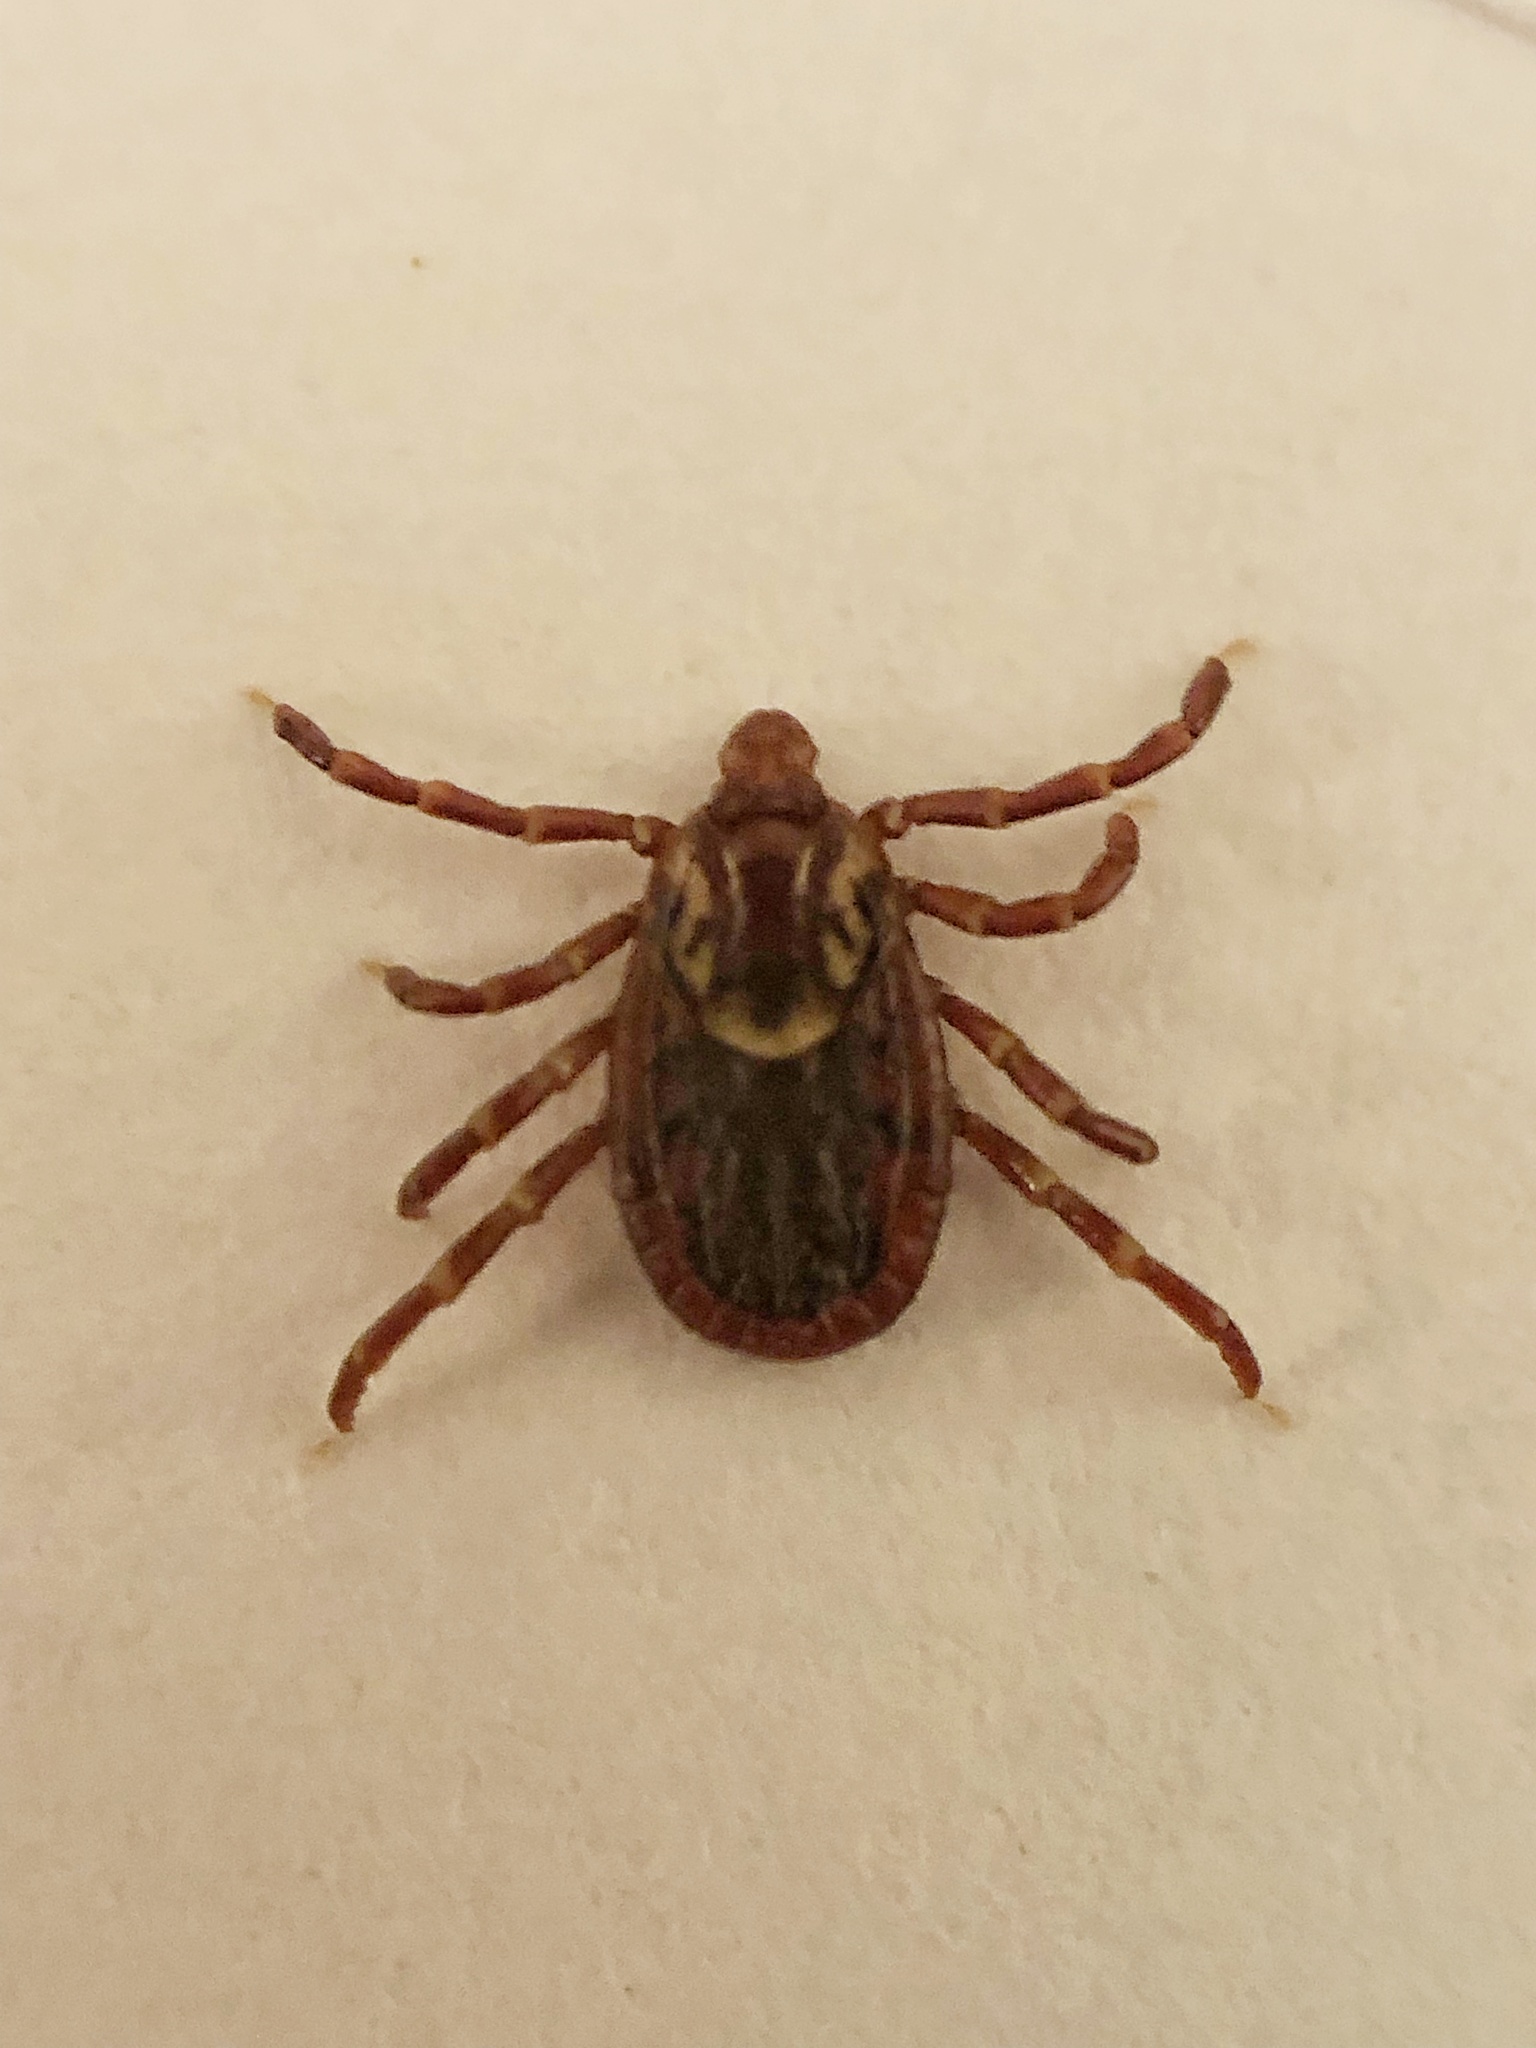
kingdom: Animalia
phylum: Arthropoda
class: Arachnida
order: Ixodida
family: Ixodidae
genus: Dermacentor
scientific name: Dermacentor variabilis
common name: American dog tick
